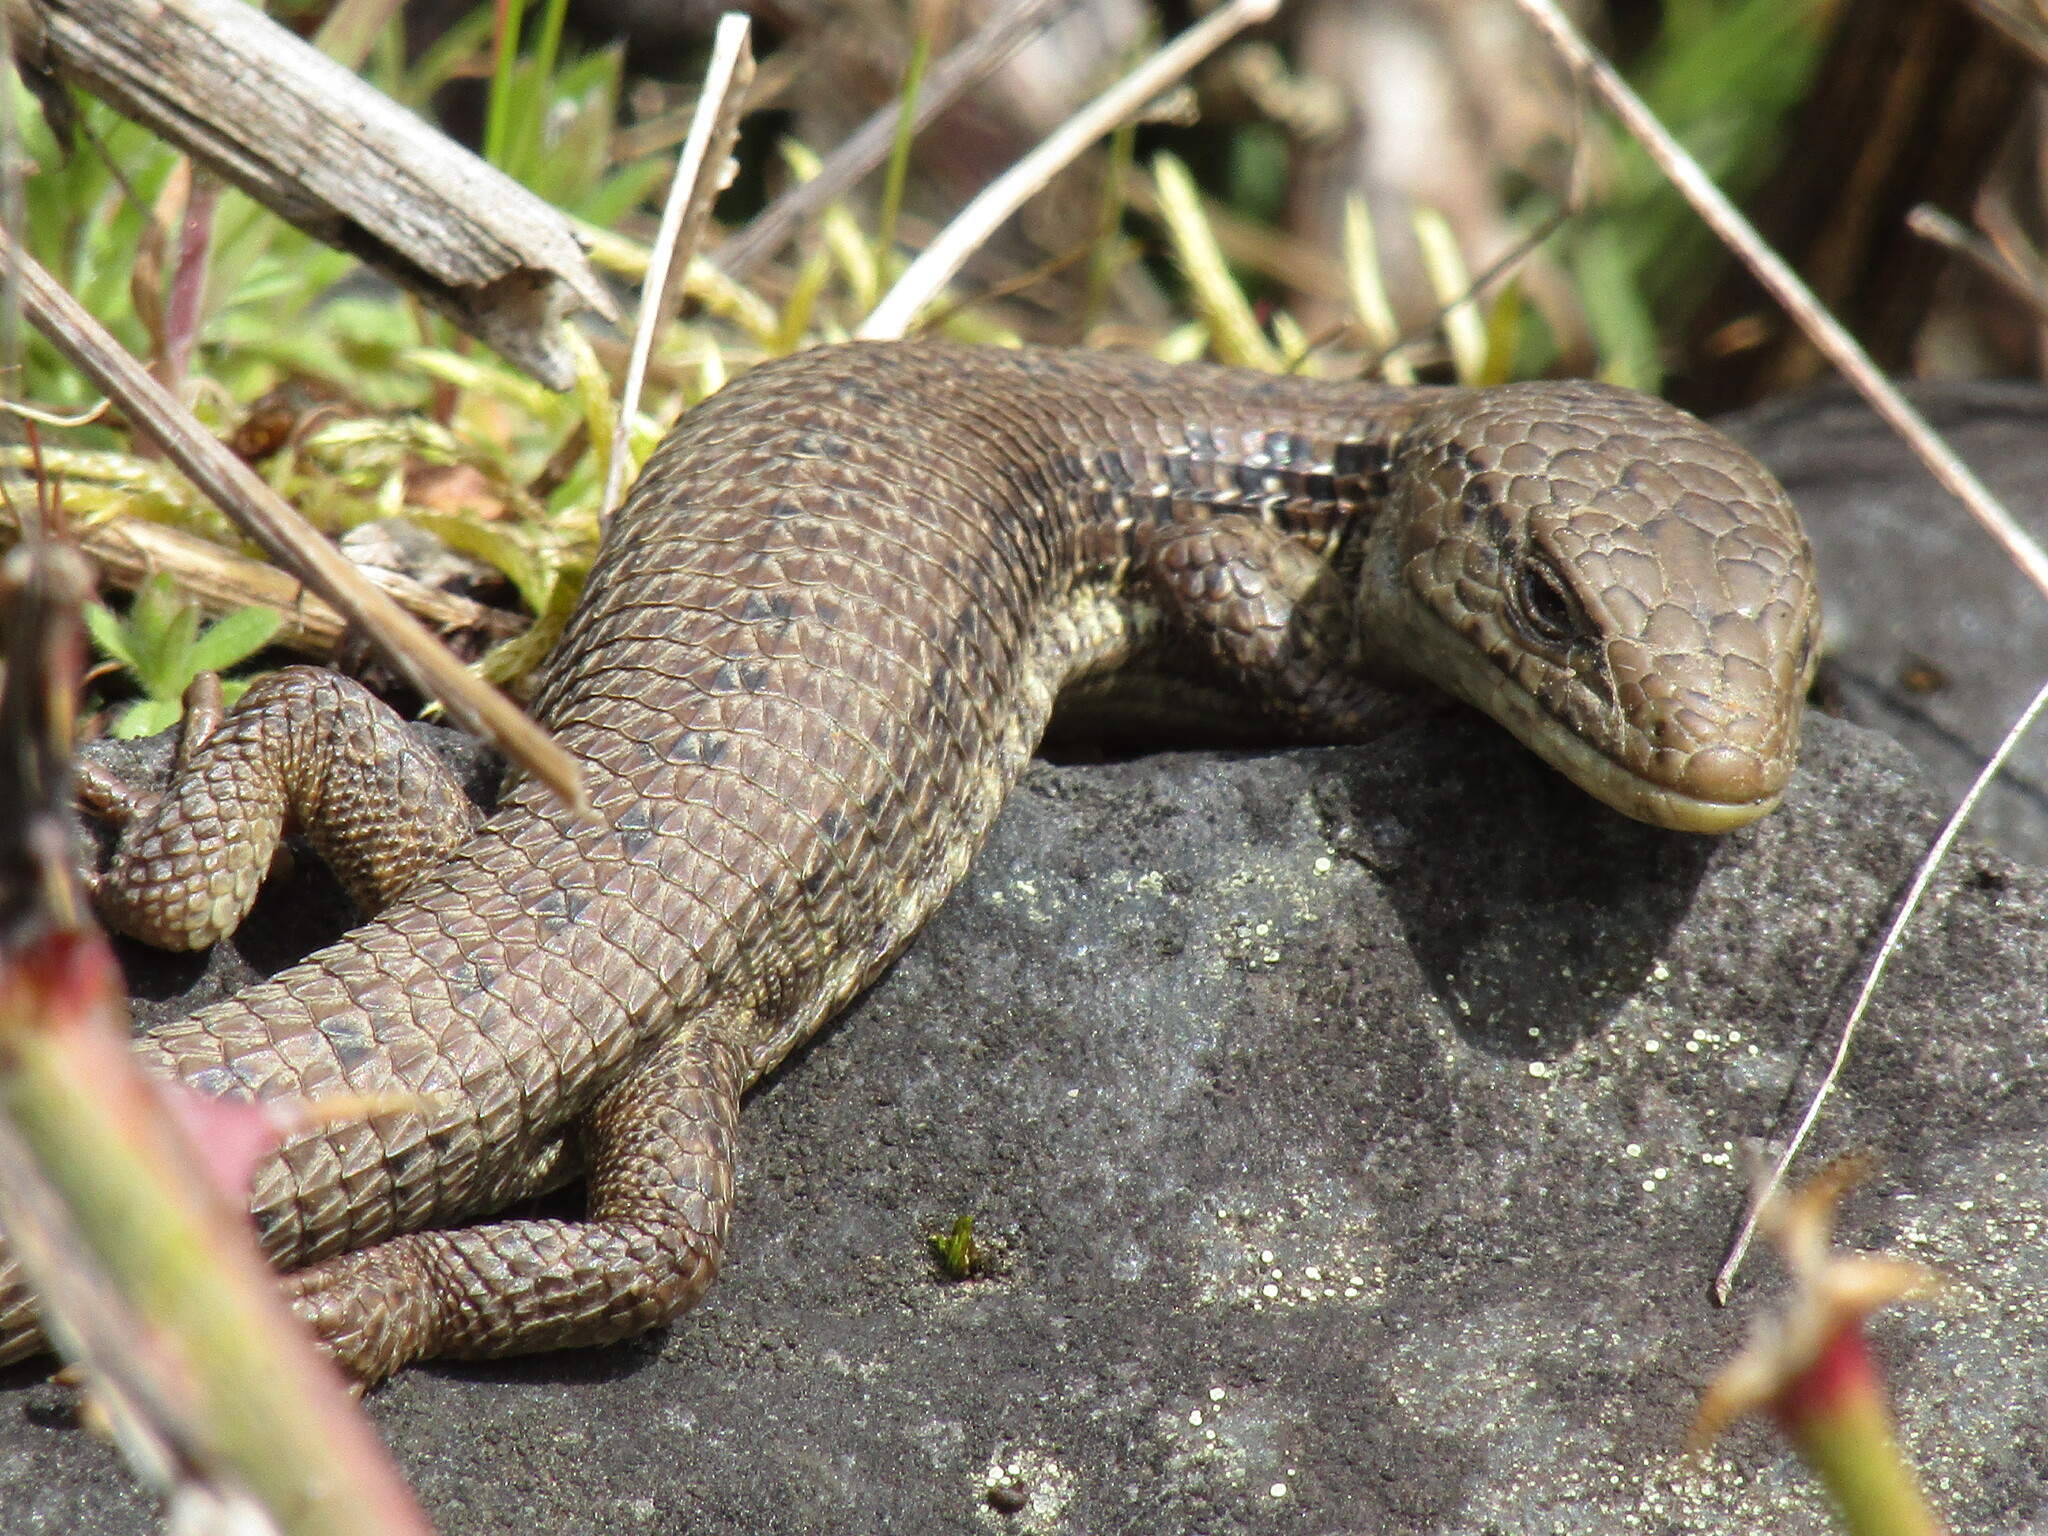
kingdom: Animalia
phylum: Chordata
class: Squamata
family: Anguidae
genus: Elgaria
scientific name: Elgaria coerulea
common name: Northern alligator lizard
